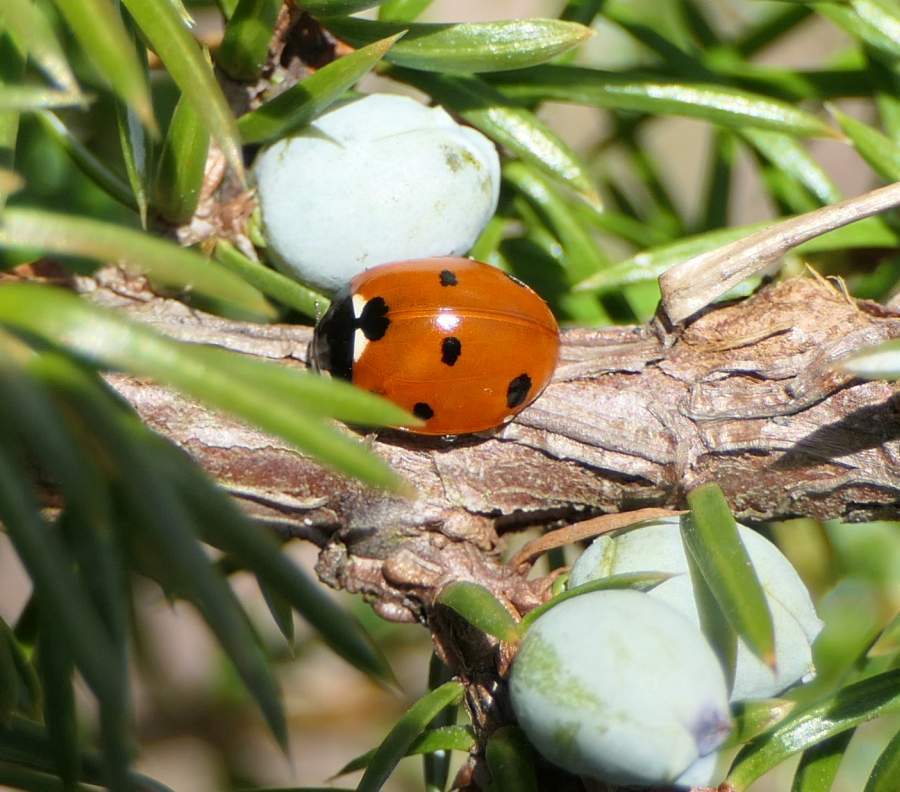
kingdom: Animalia
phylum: Arthropoda
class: Insecta
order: Coleoptera
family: Coccinellidae
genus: Coccinella
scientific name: Coccinella septempunctata
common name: Sevenspotted lady beetle
